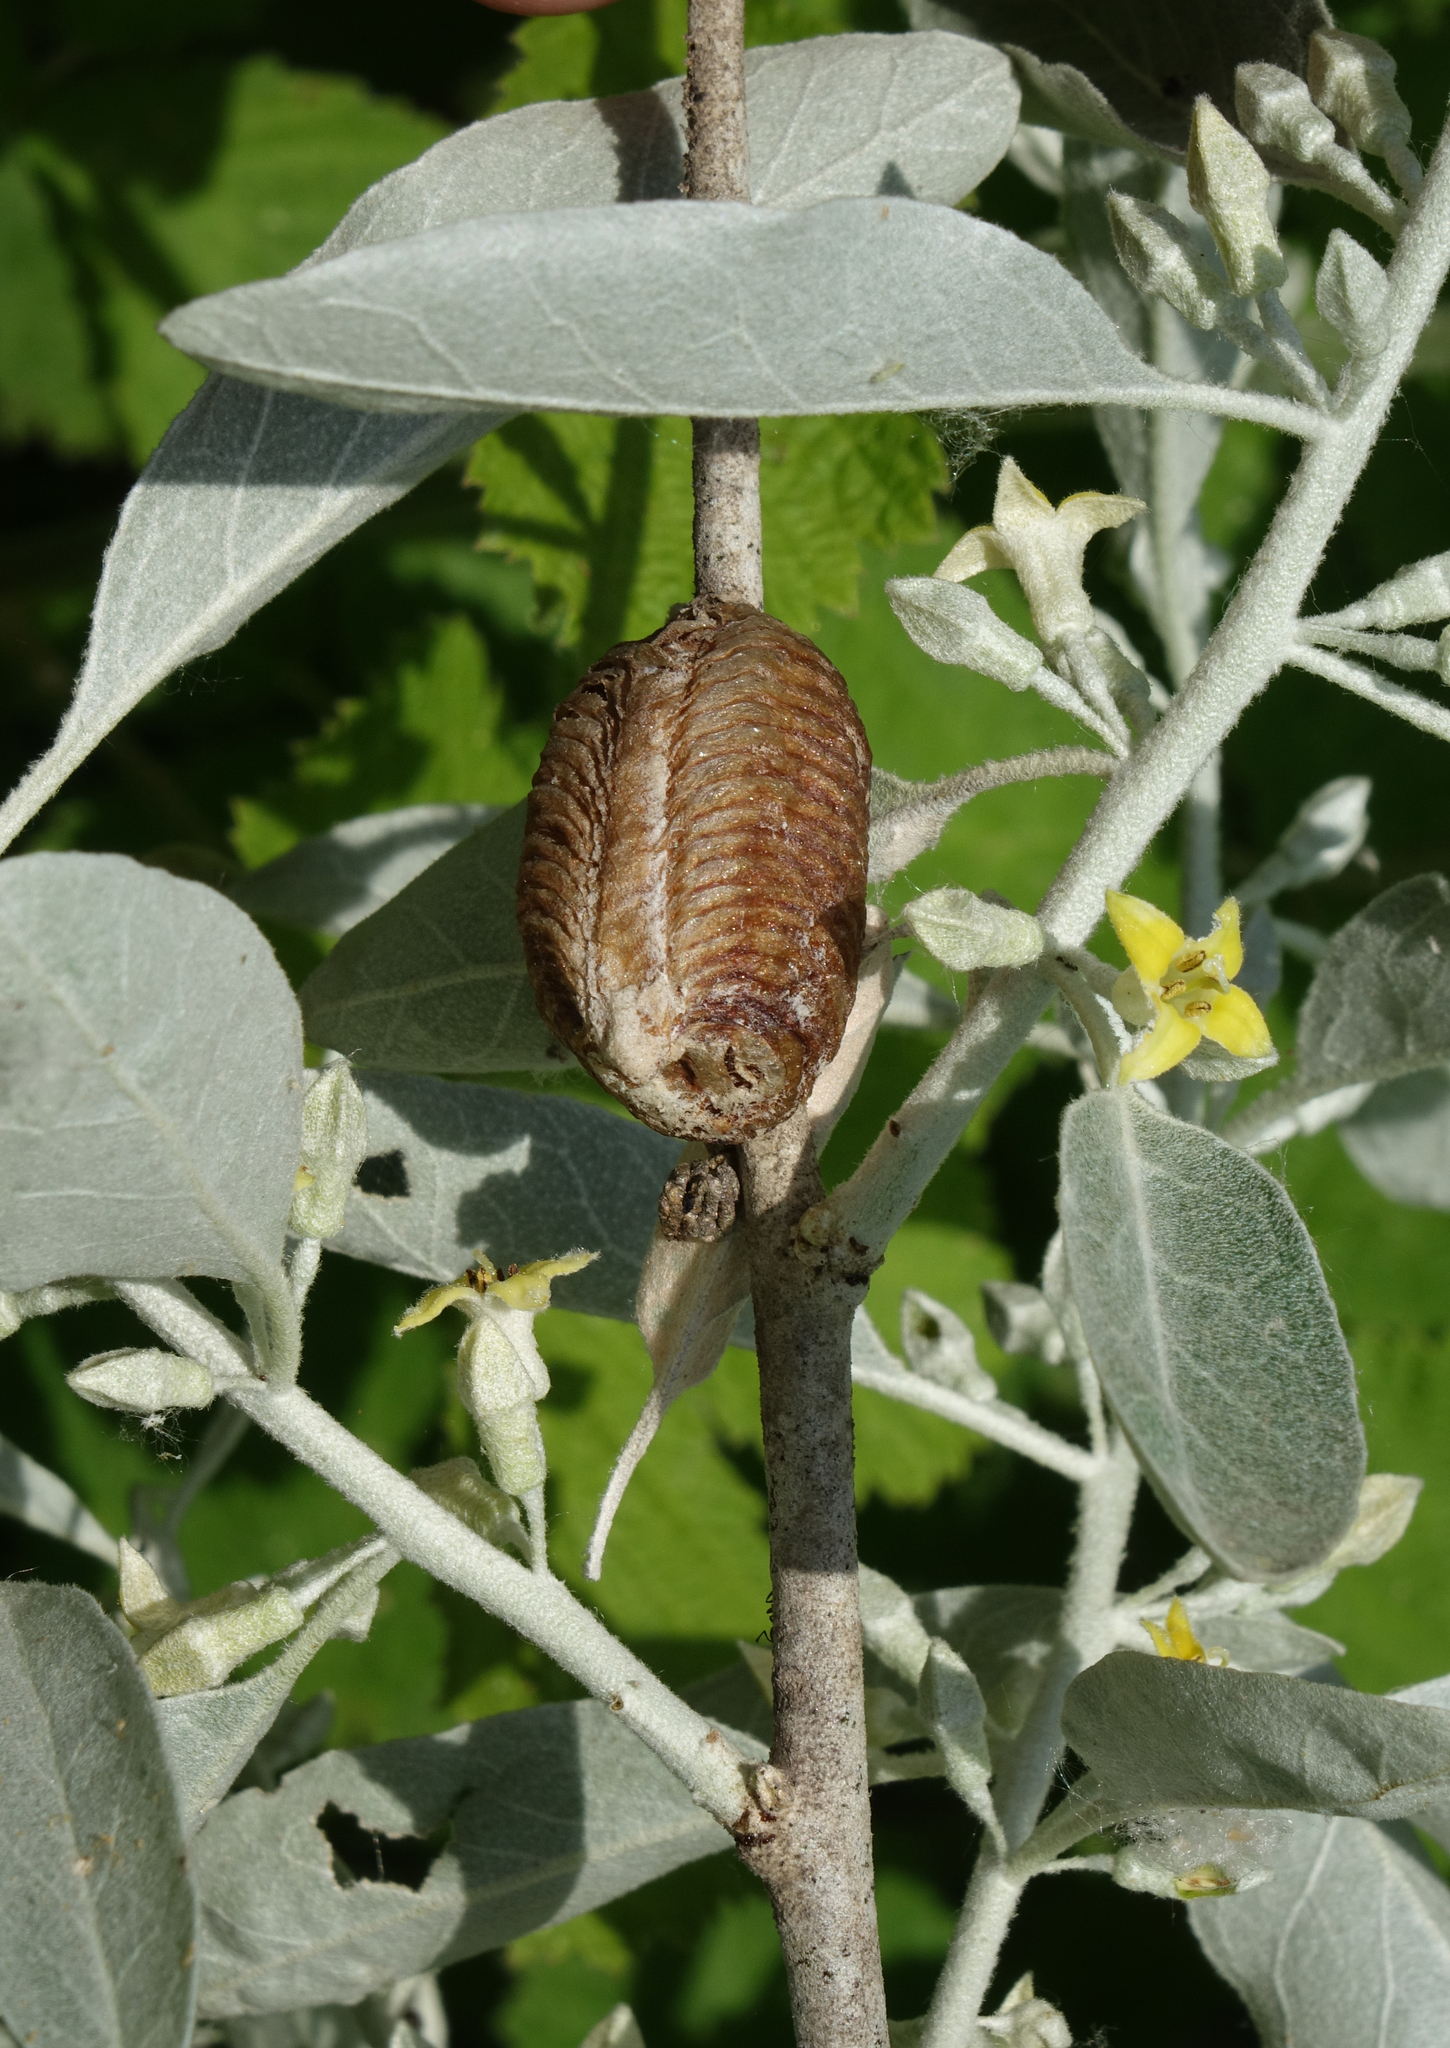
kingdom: Animalia
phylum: Arthropoda
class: Insecta
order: Mantodea
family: Mantidae
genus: Hierodula
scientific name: Hierodula transcaucasica
